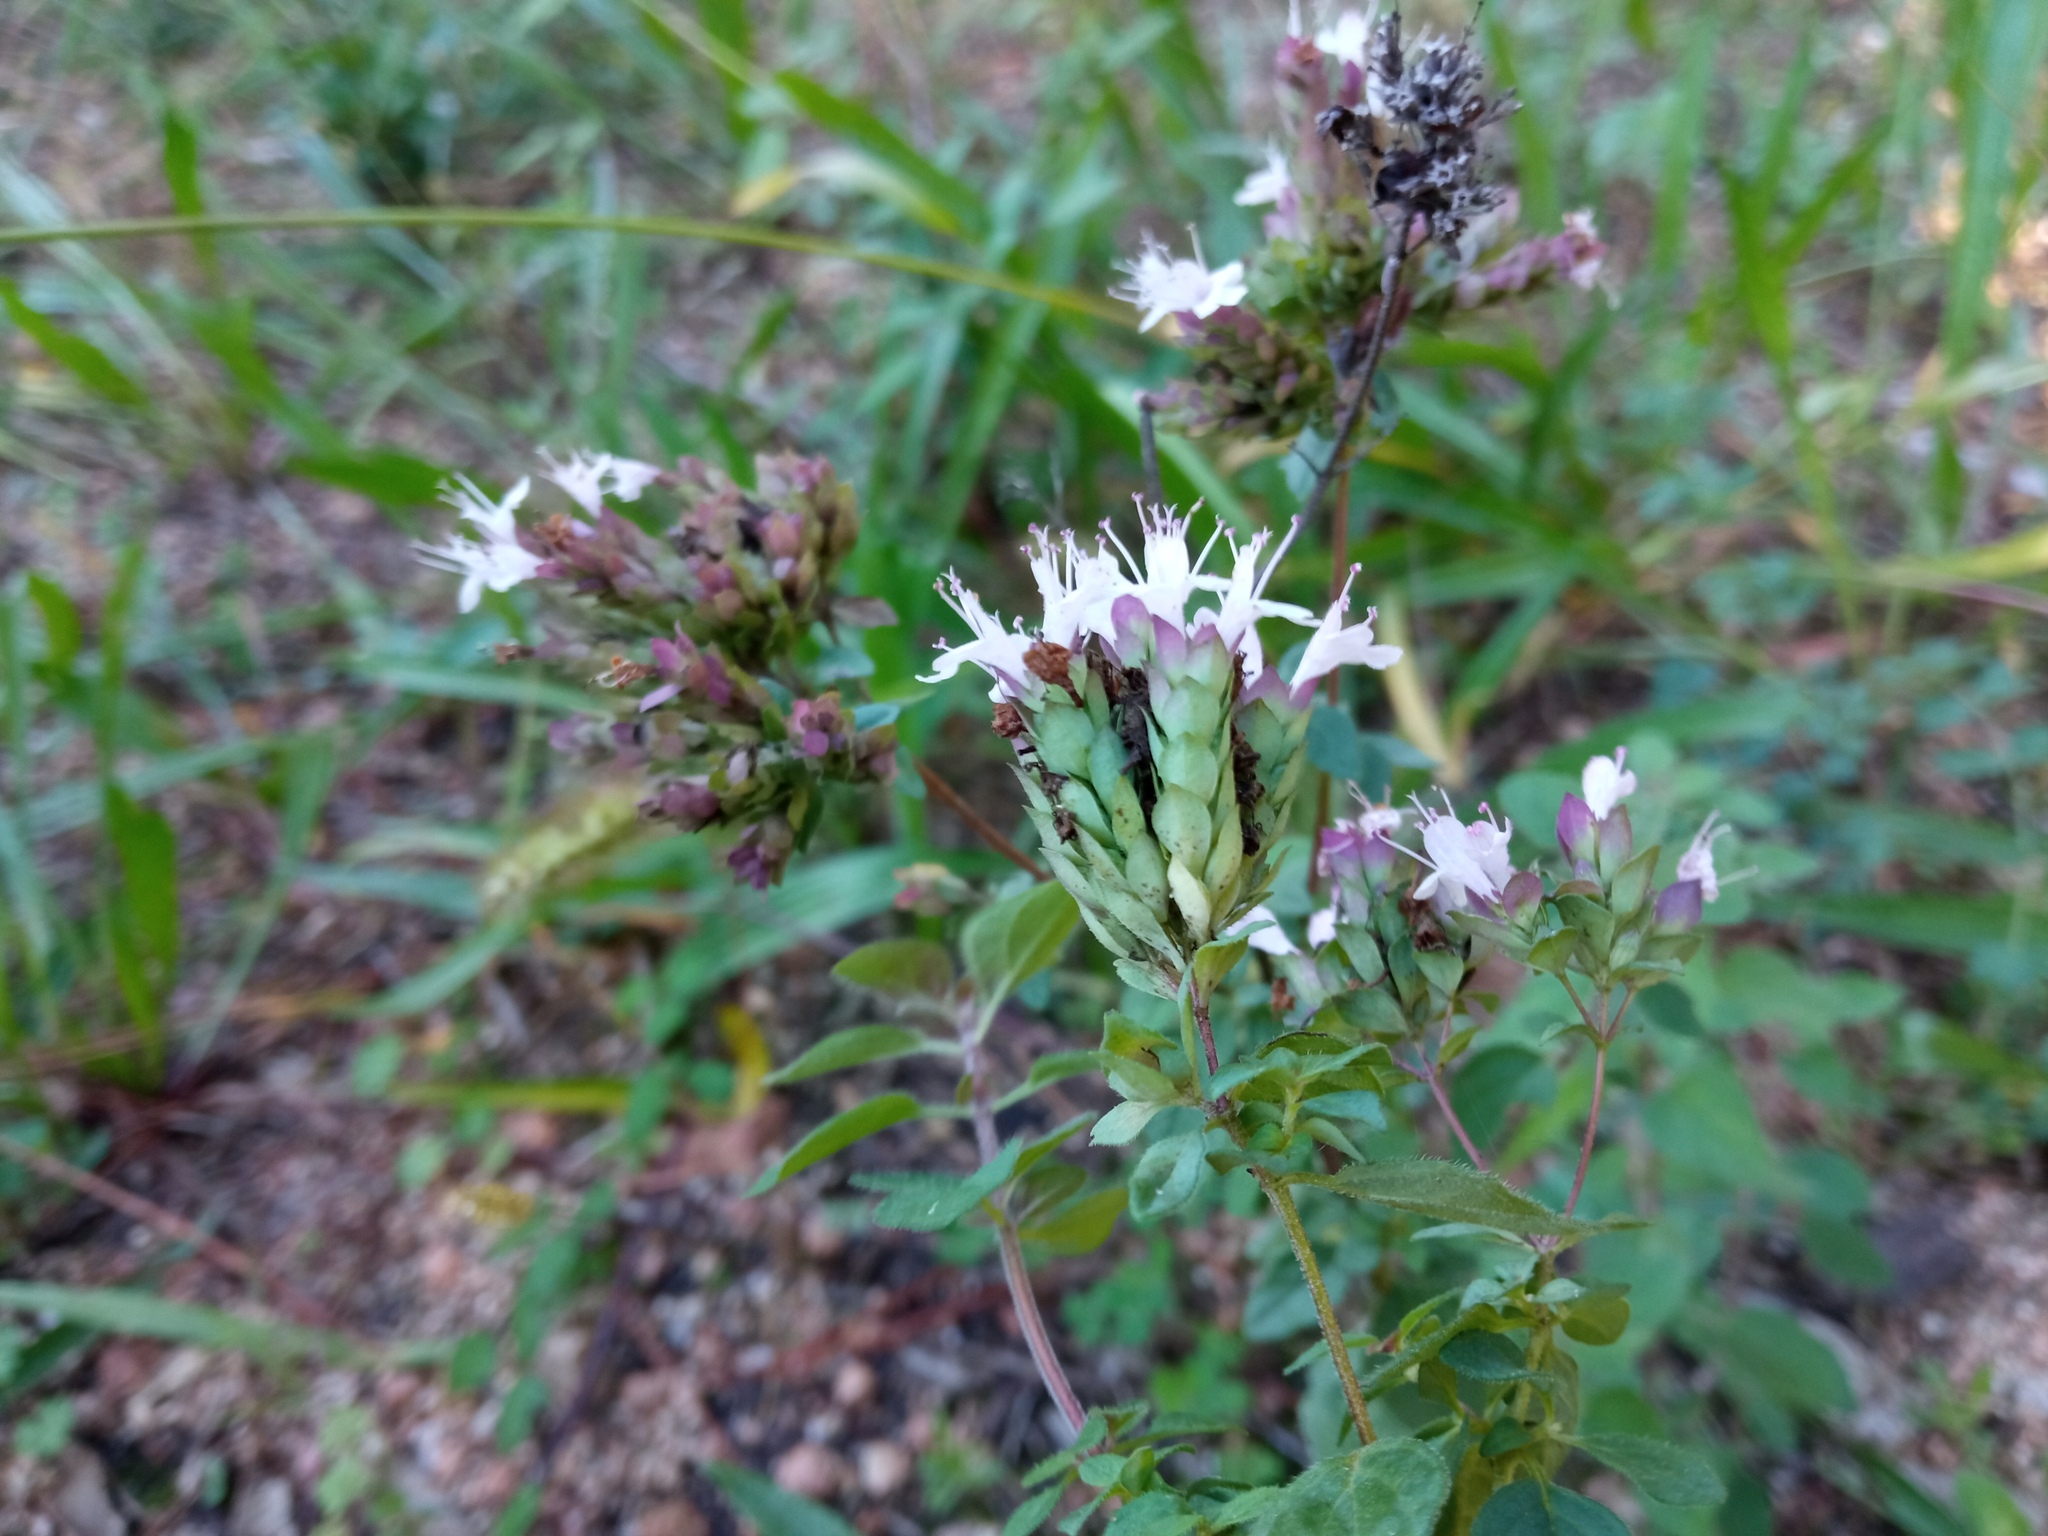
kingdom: Plantae
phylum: Tracheophyta
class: Magnoliopsida
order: Lamiales
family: Lamiaceae
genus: Origanum
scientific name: Origanum vulgare
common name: Wild marjoram
